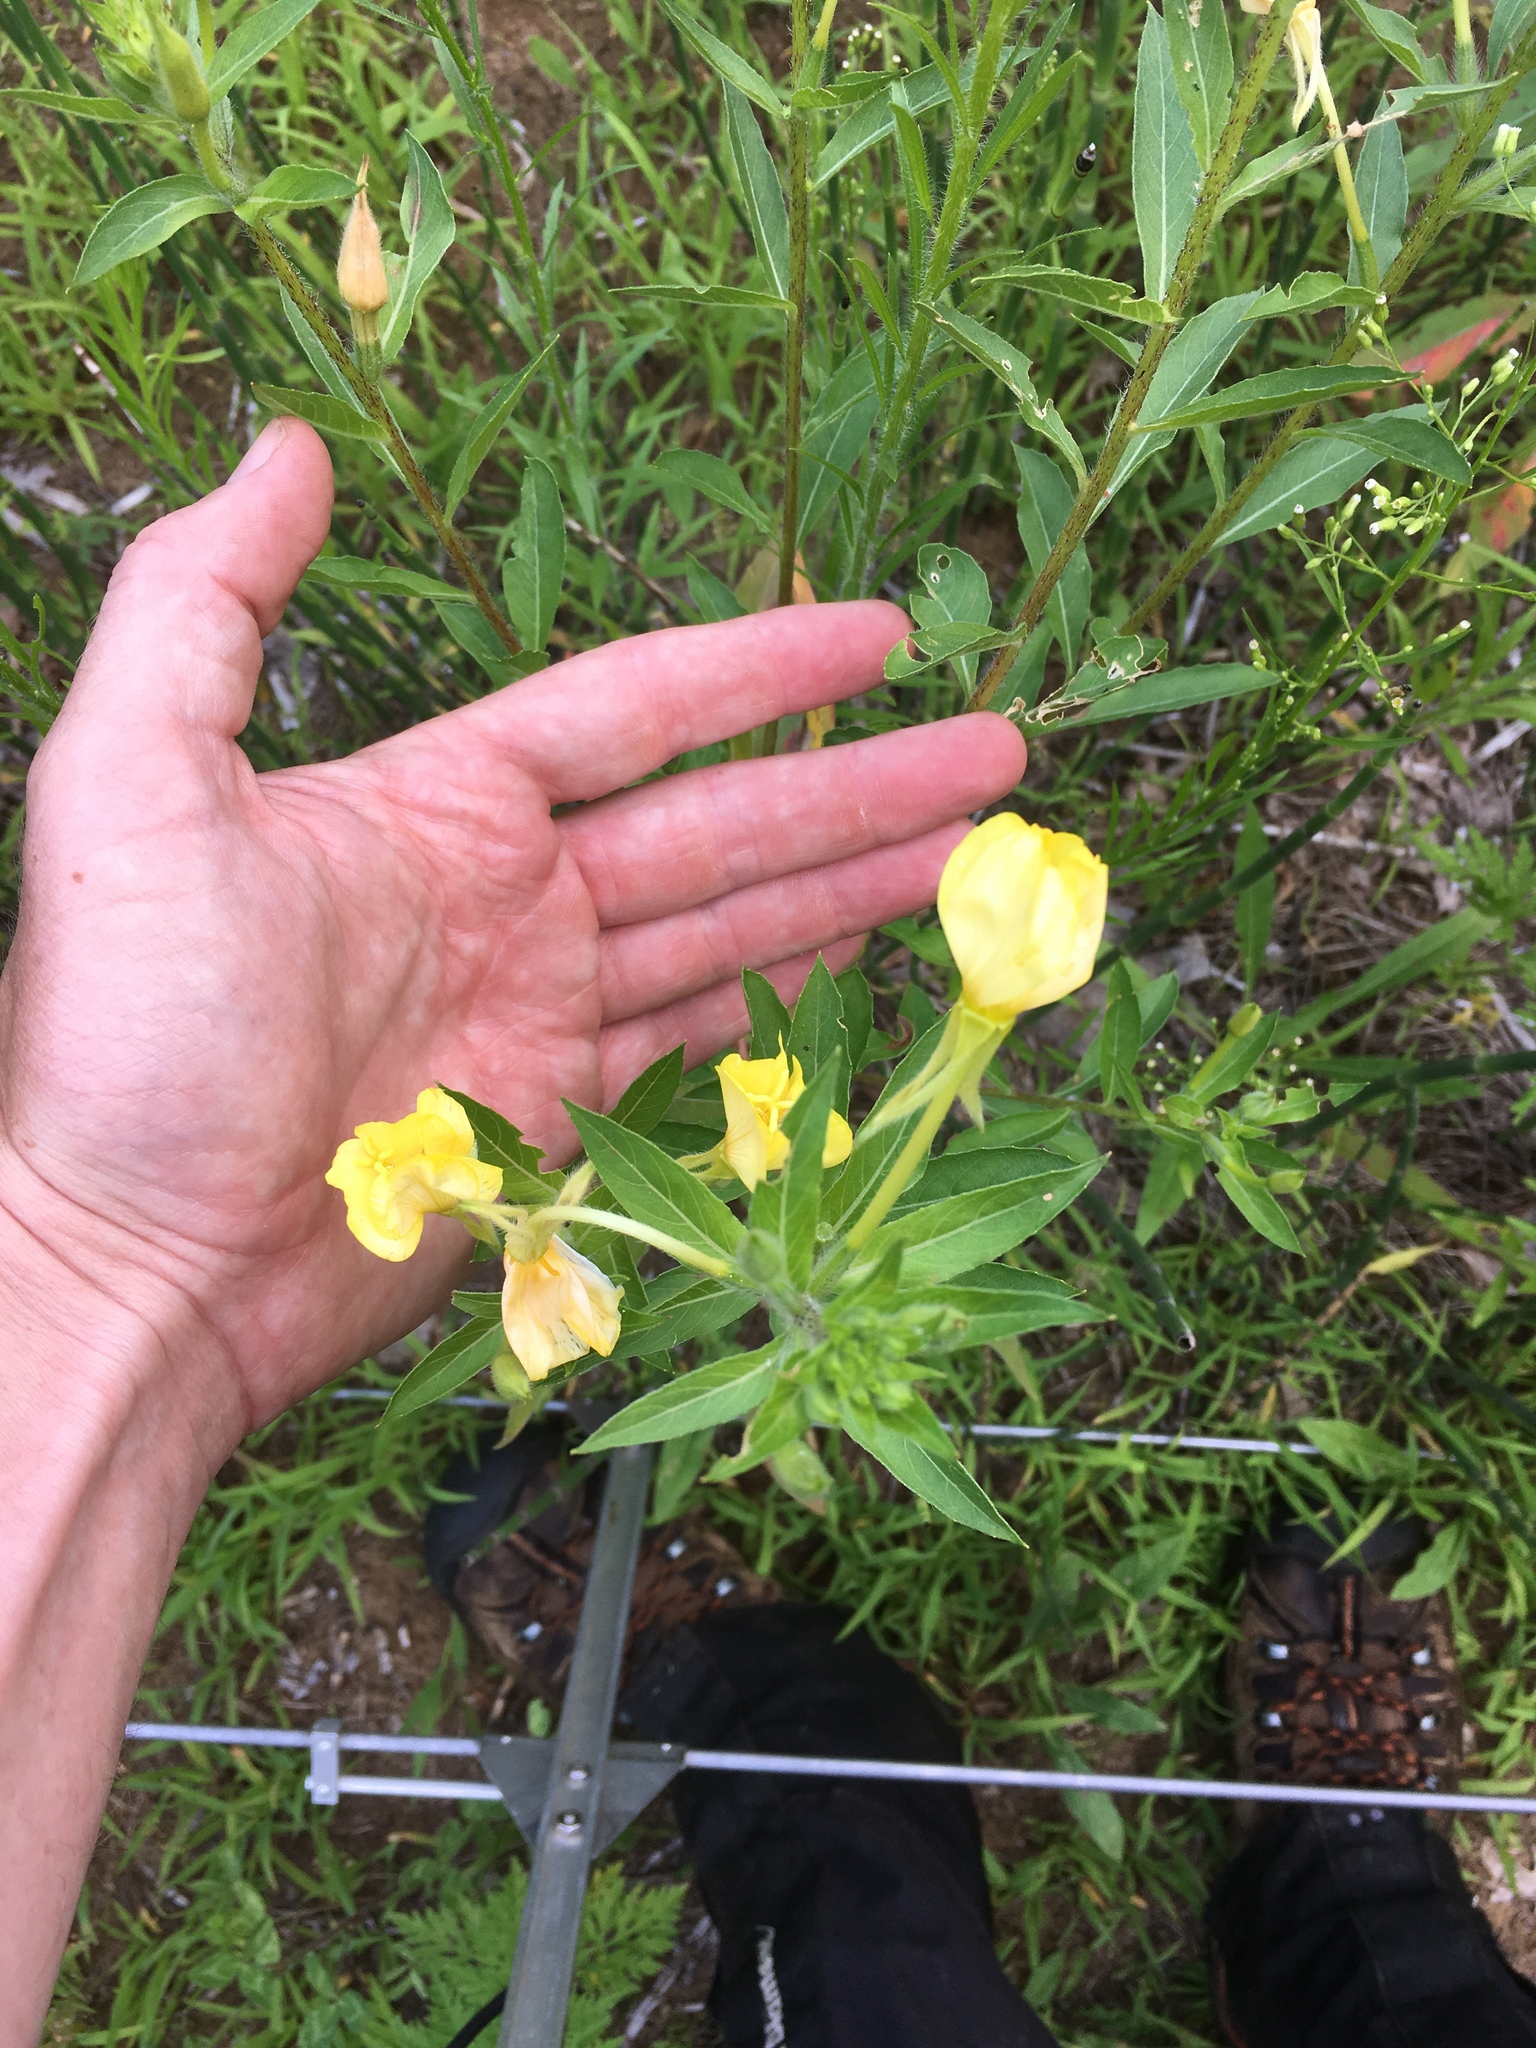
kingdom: Plantae
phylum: Tracheophyta
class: Magnoliopsida
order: Myrtales
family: Onagraceae
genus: Oenothera
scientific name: Oenothera biennis
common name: Common evening-primrose
